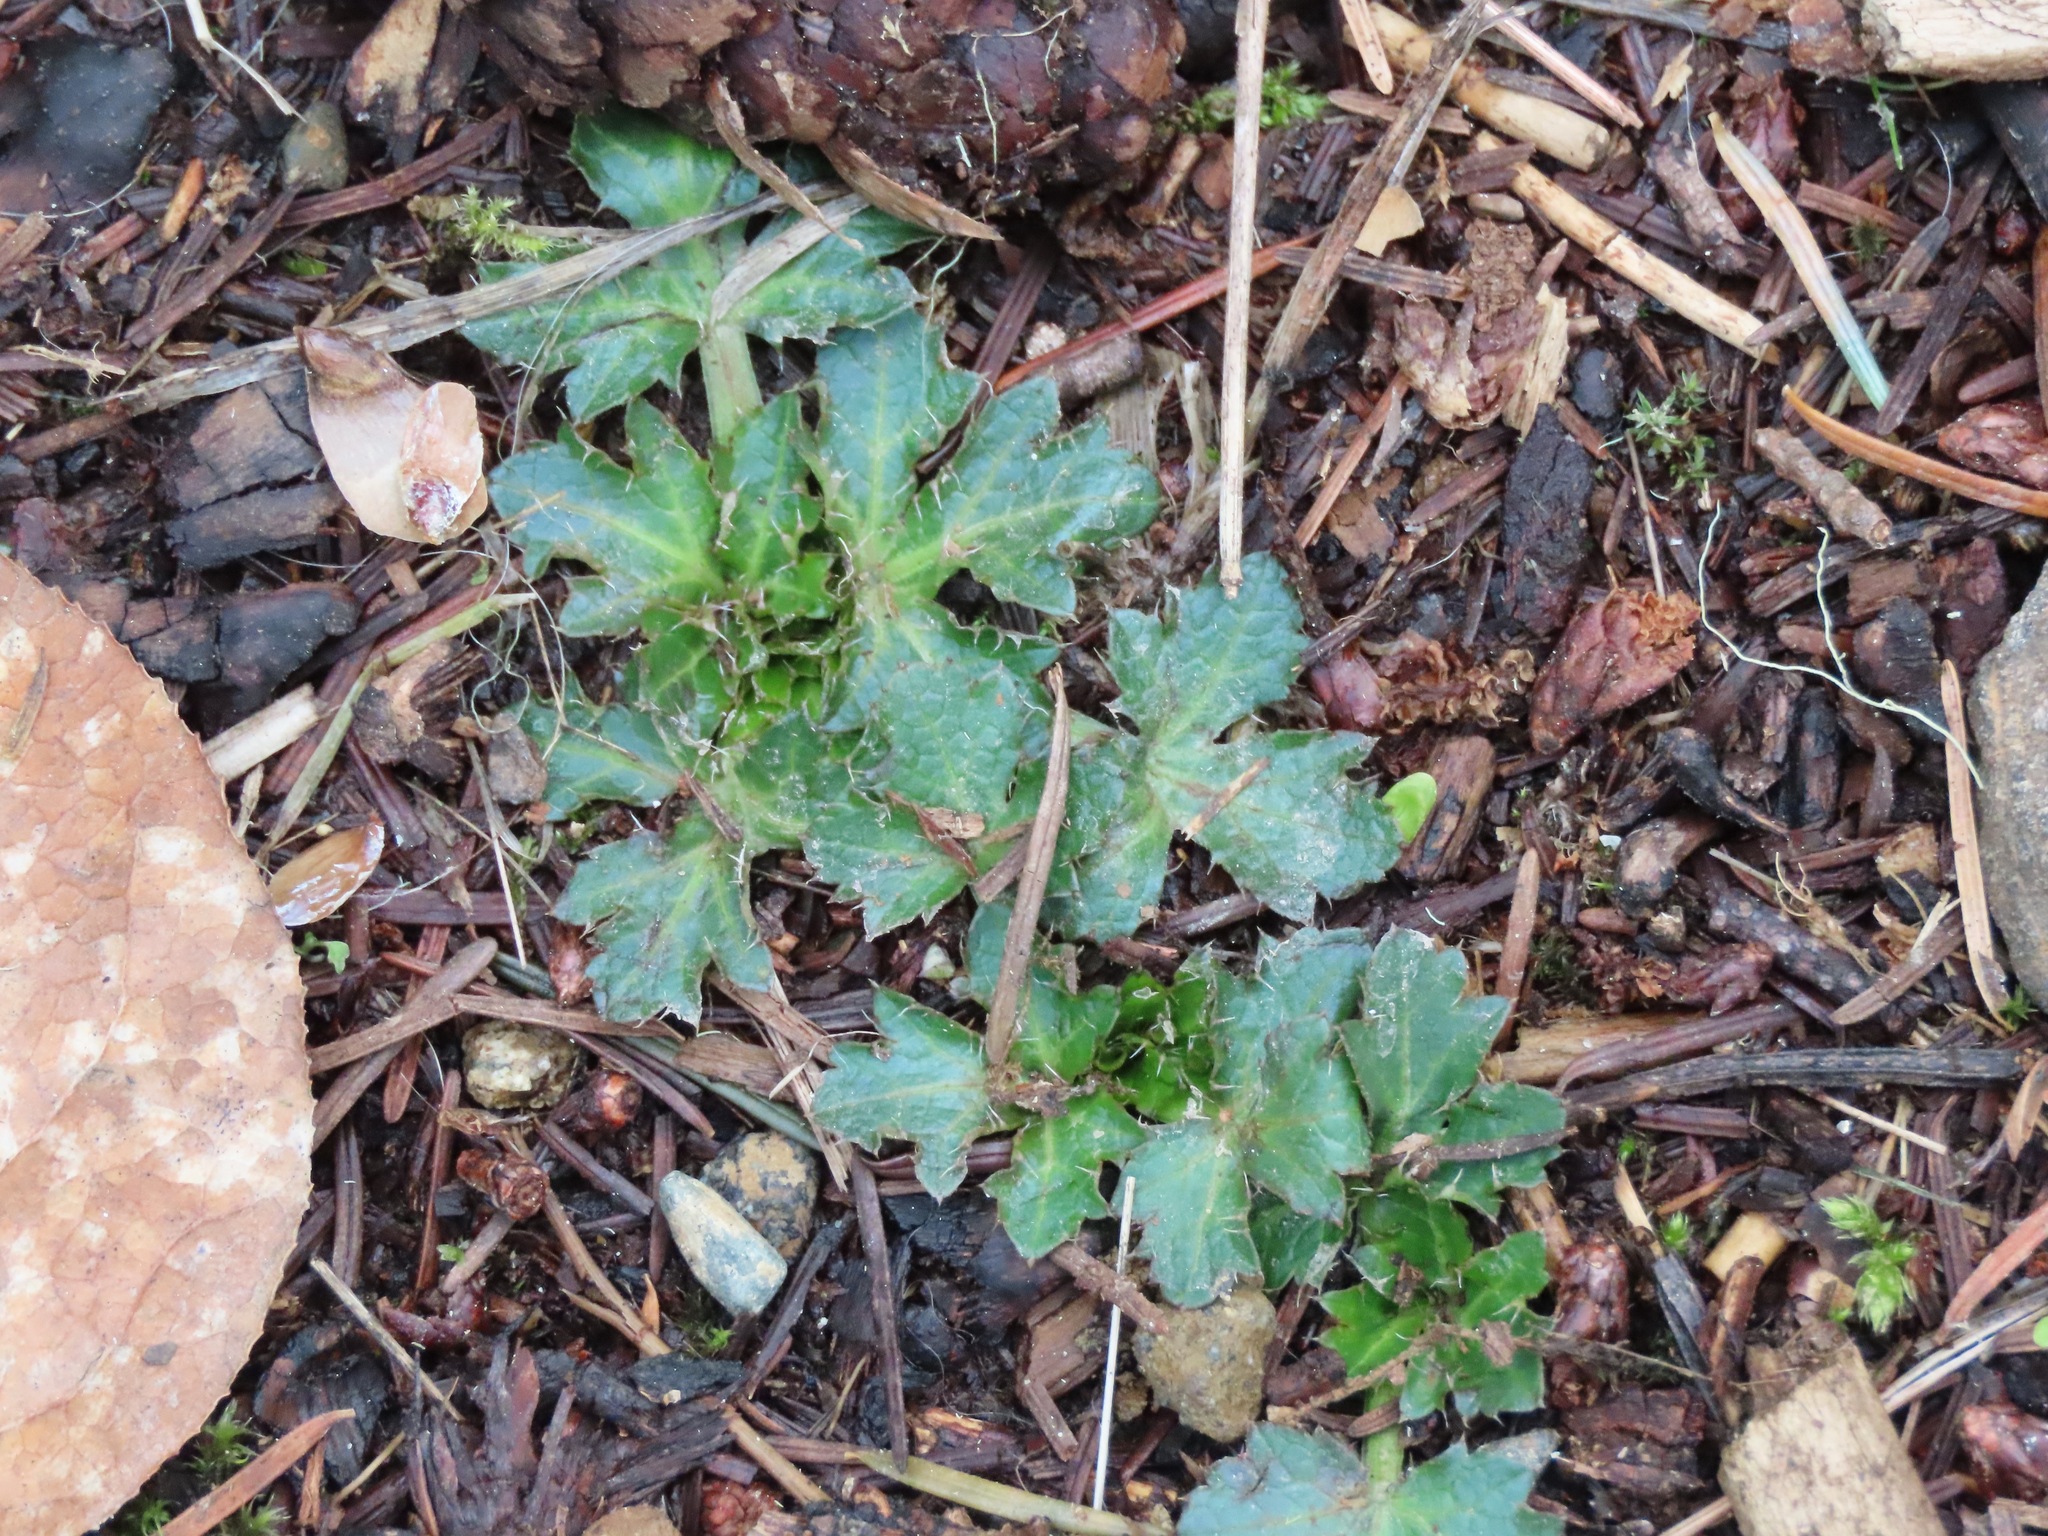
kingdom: Plantae
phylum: Tracheophyta
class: Magnoliopsida
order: Apiales
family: Apiaceae
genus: Sanicula
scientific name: Sanicula crassicaulis
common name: Western snakeroot
